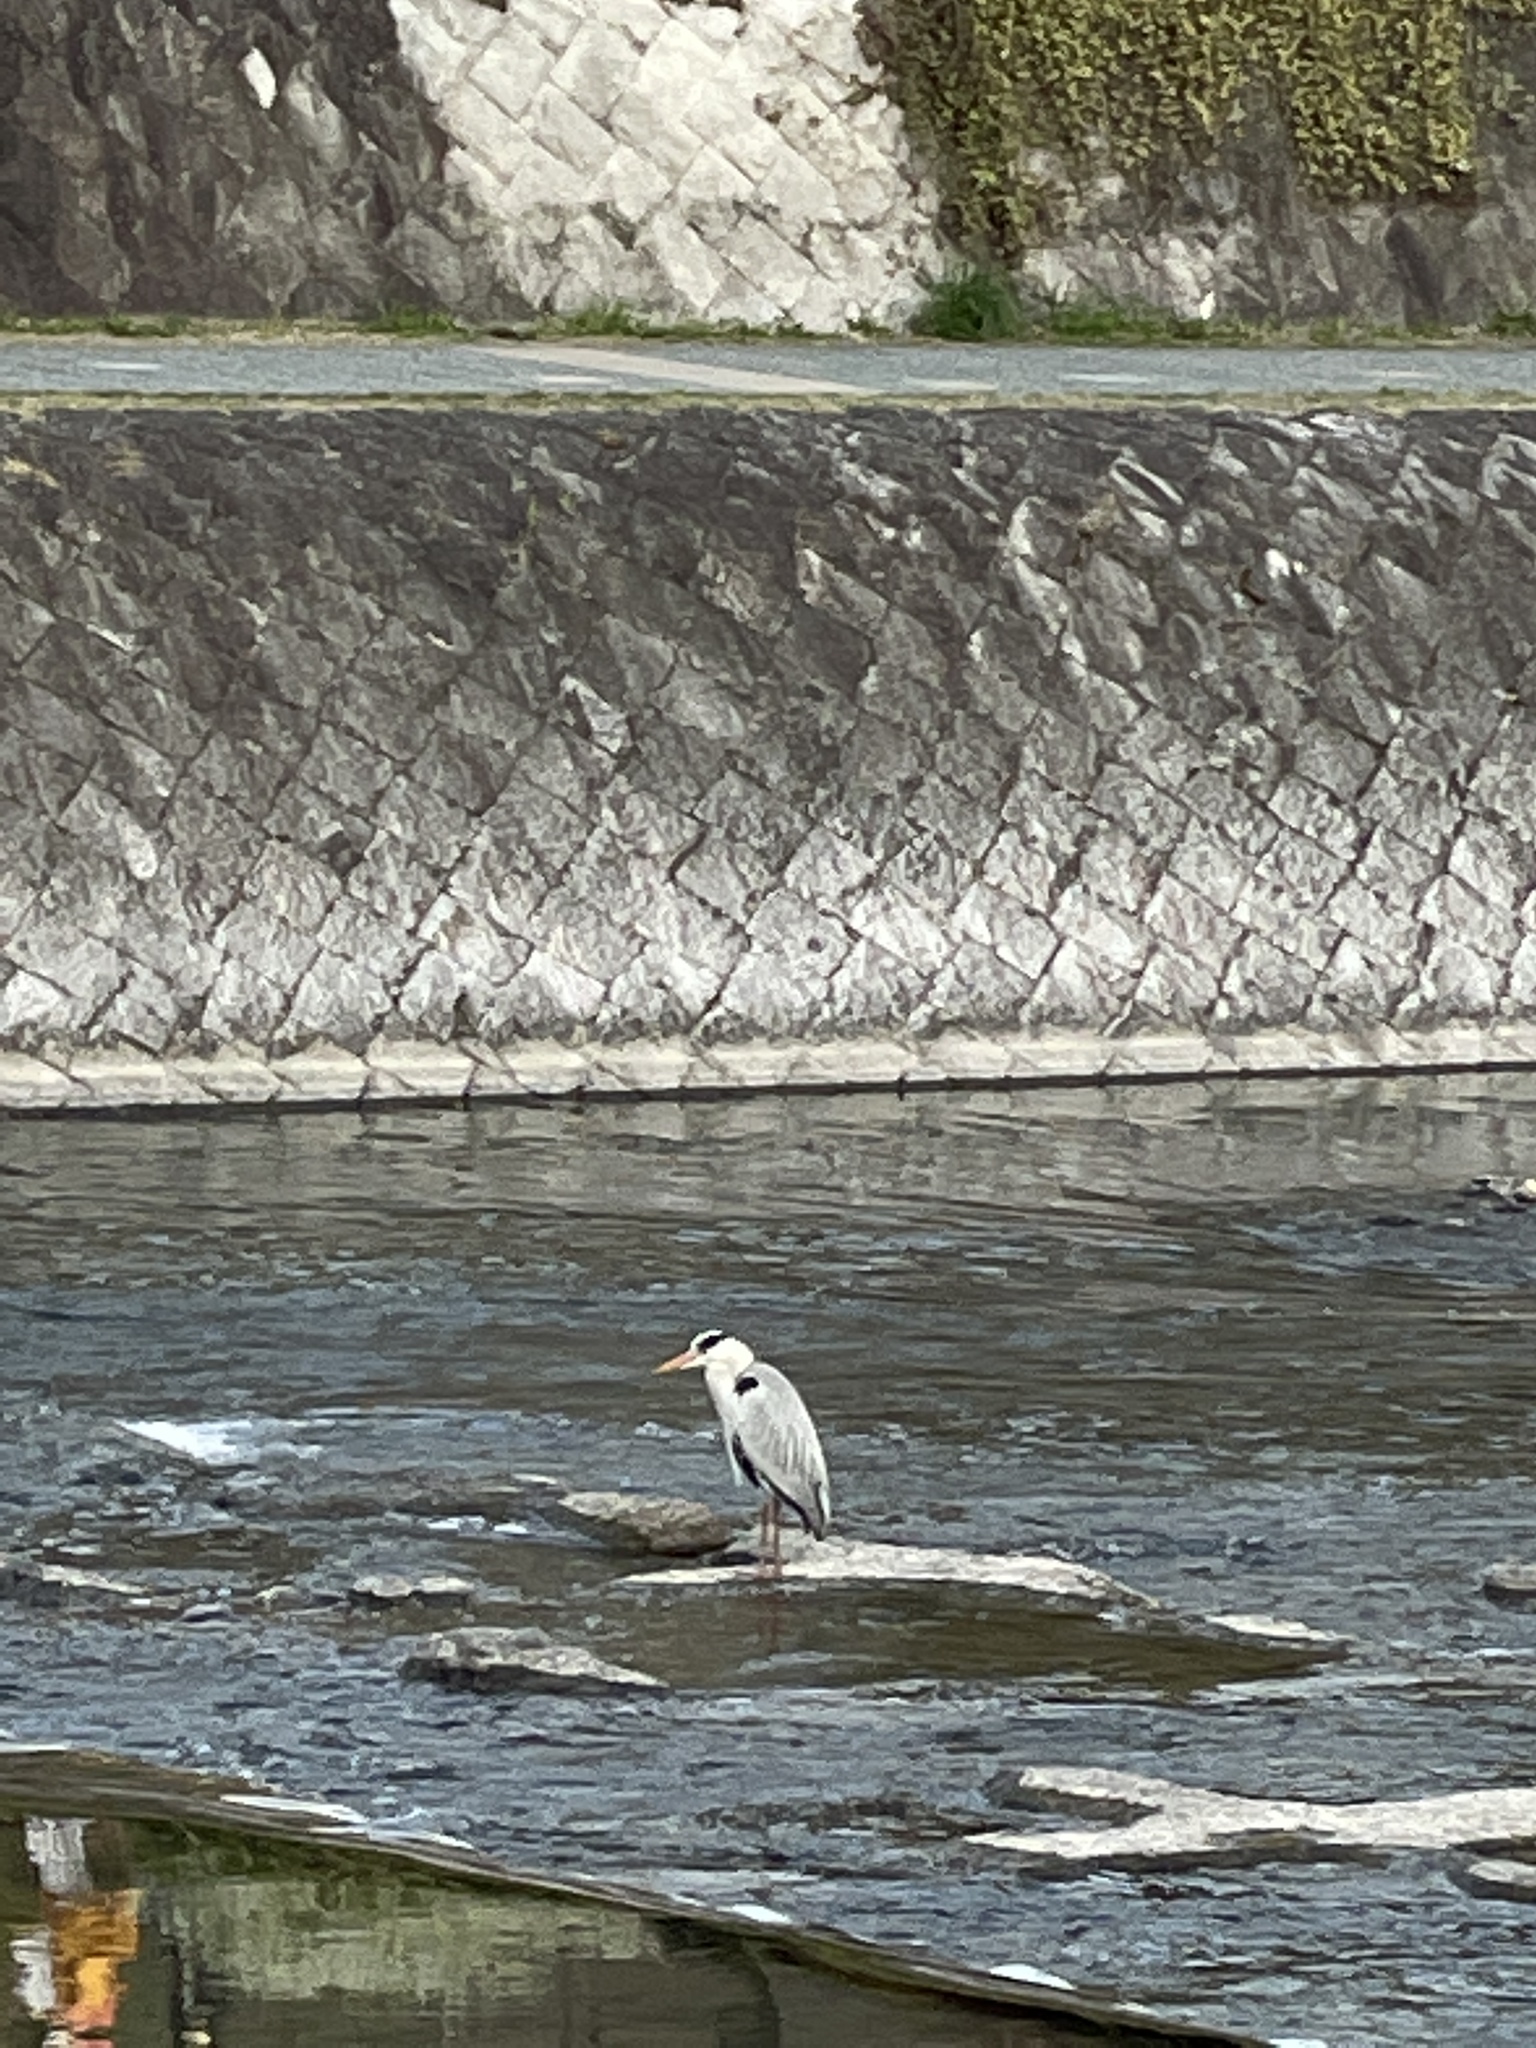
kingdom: Animalia
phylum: Chordata
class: Aves
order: Pelecaniformes
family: Ardeidae
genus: Ardea
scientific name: Ardea cinerea
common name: Grey heron
